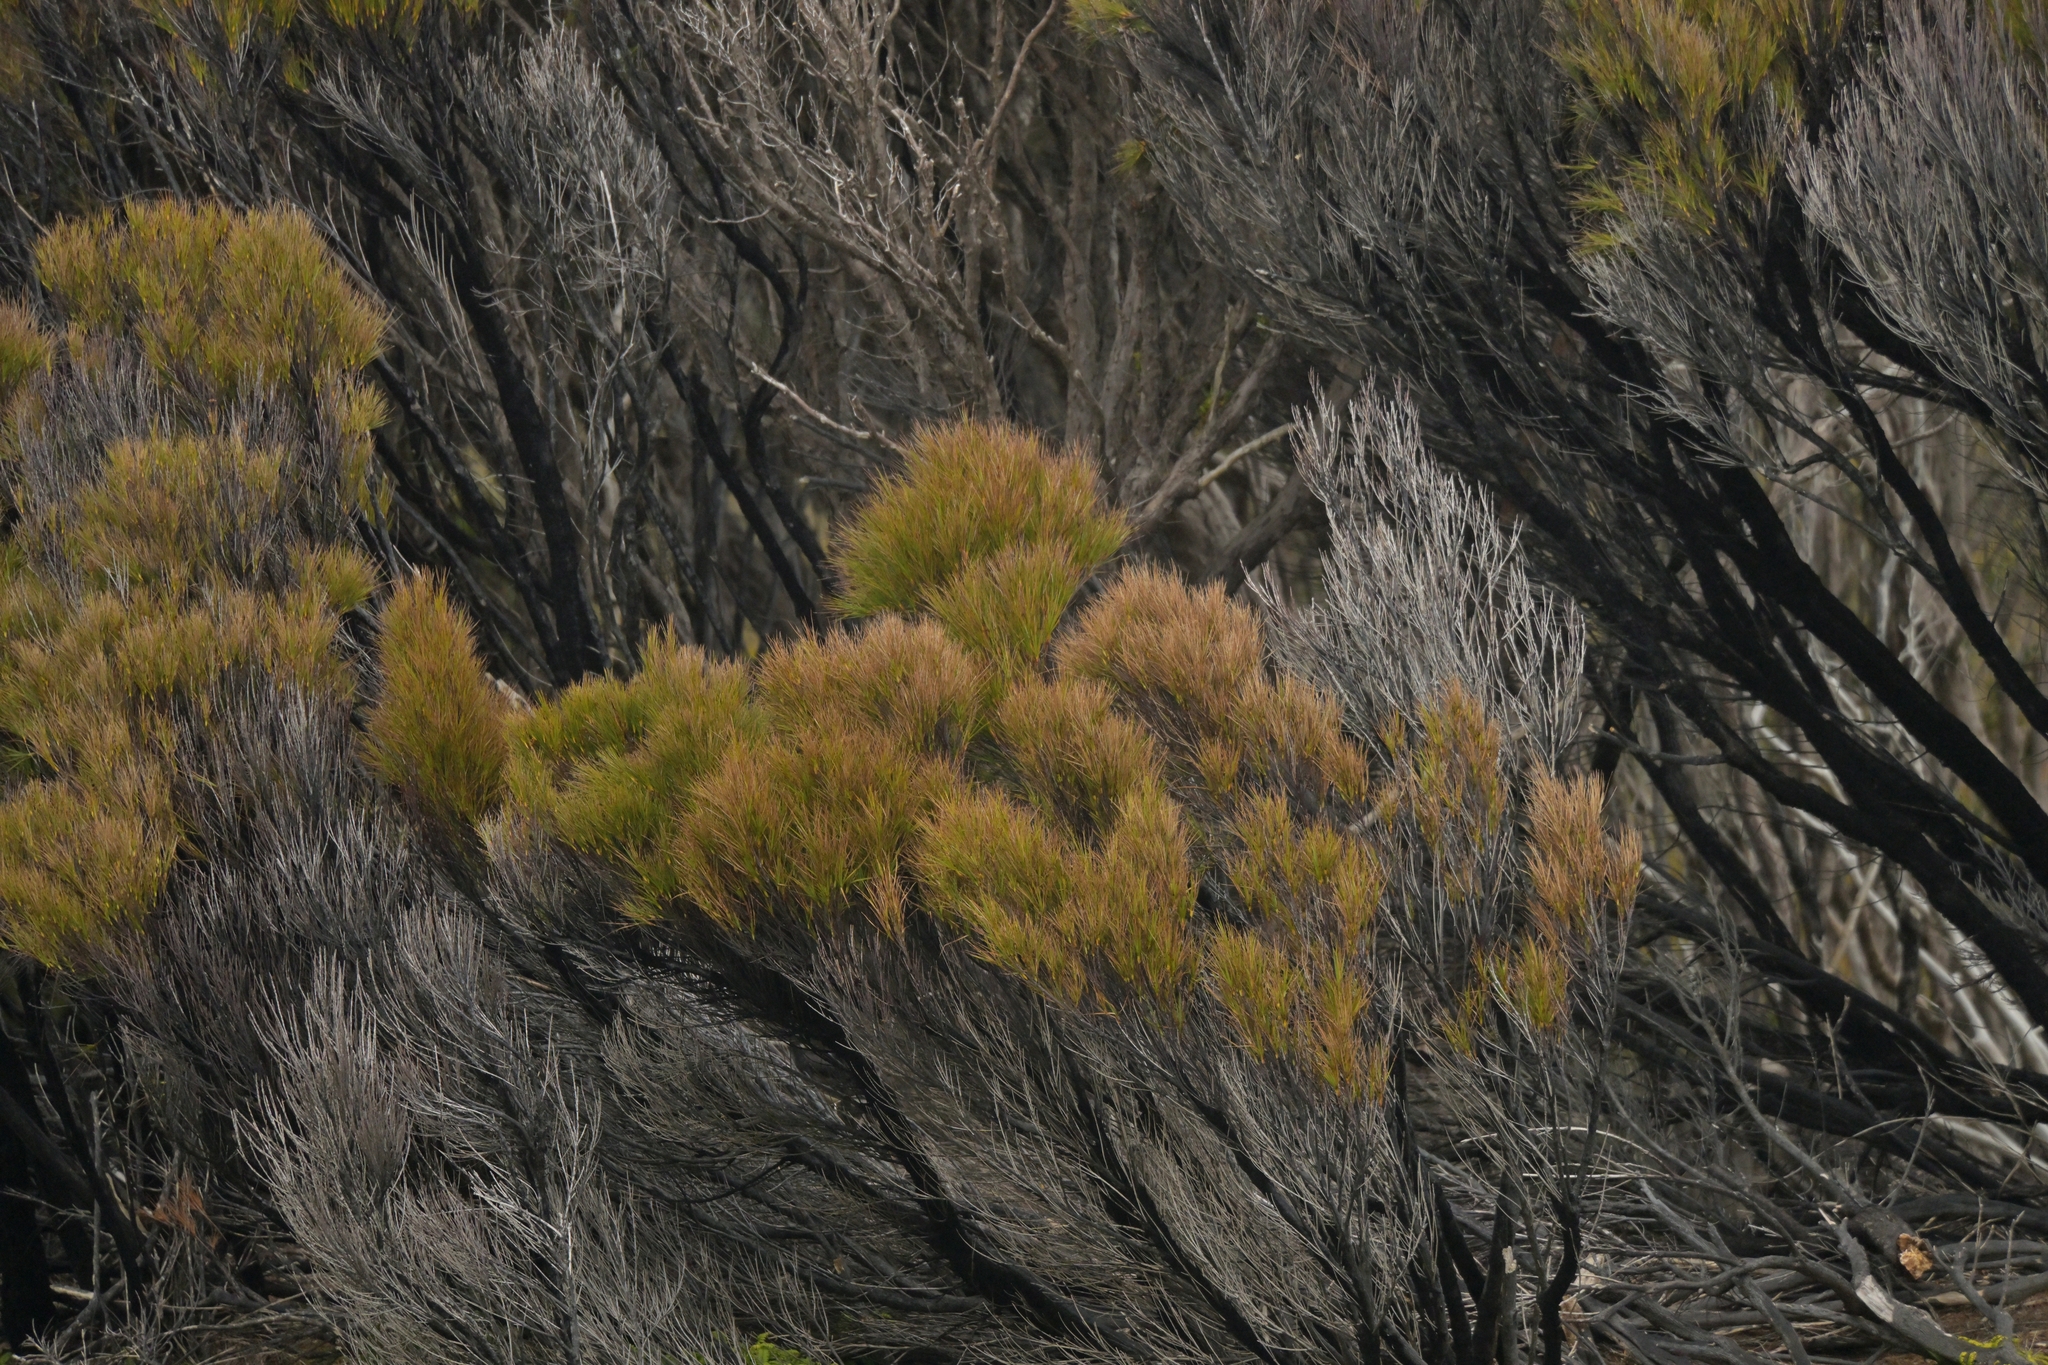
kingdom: Plantae
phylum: Tracheophyta
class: Magnoliopsida
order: Ericales
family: Ericaceae
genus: Dracophyllum
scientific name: Dracophyllum longifolium
